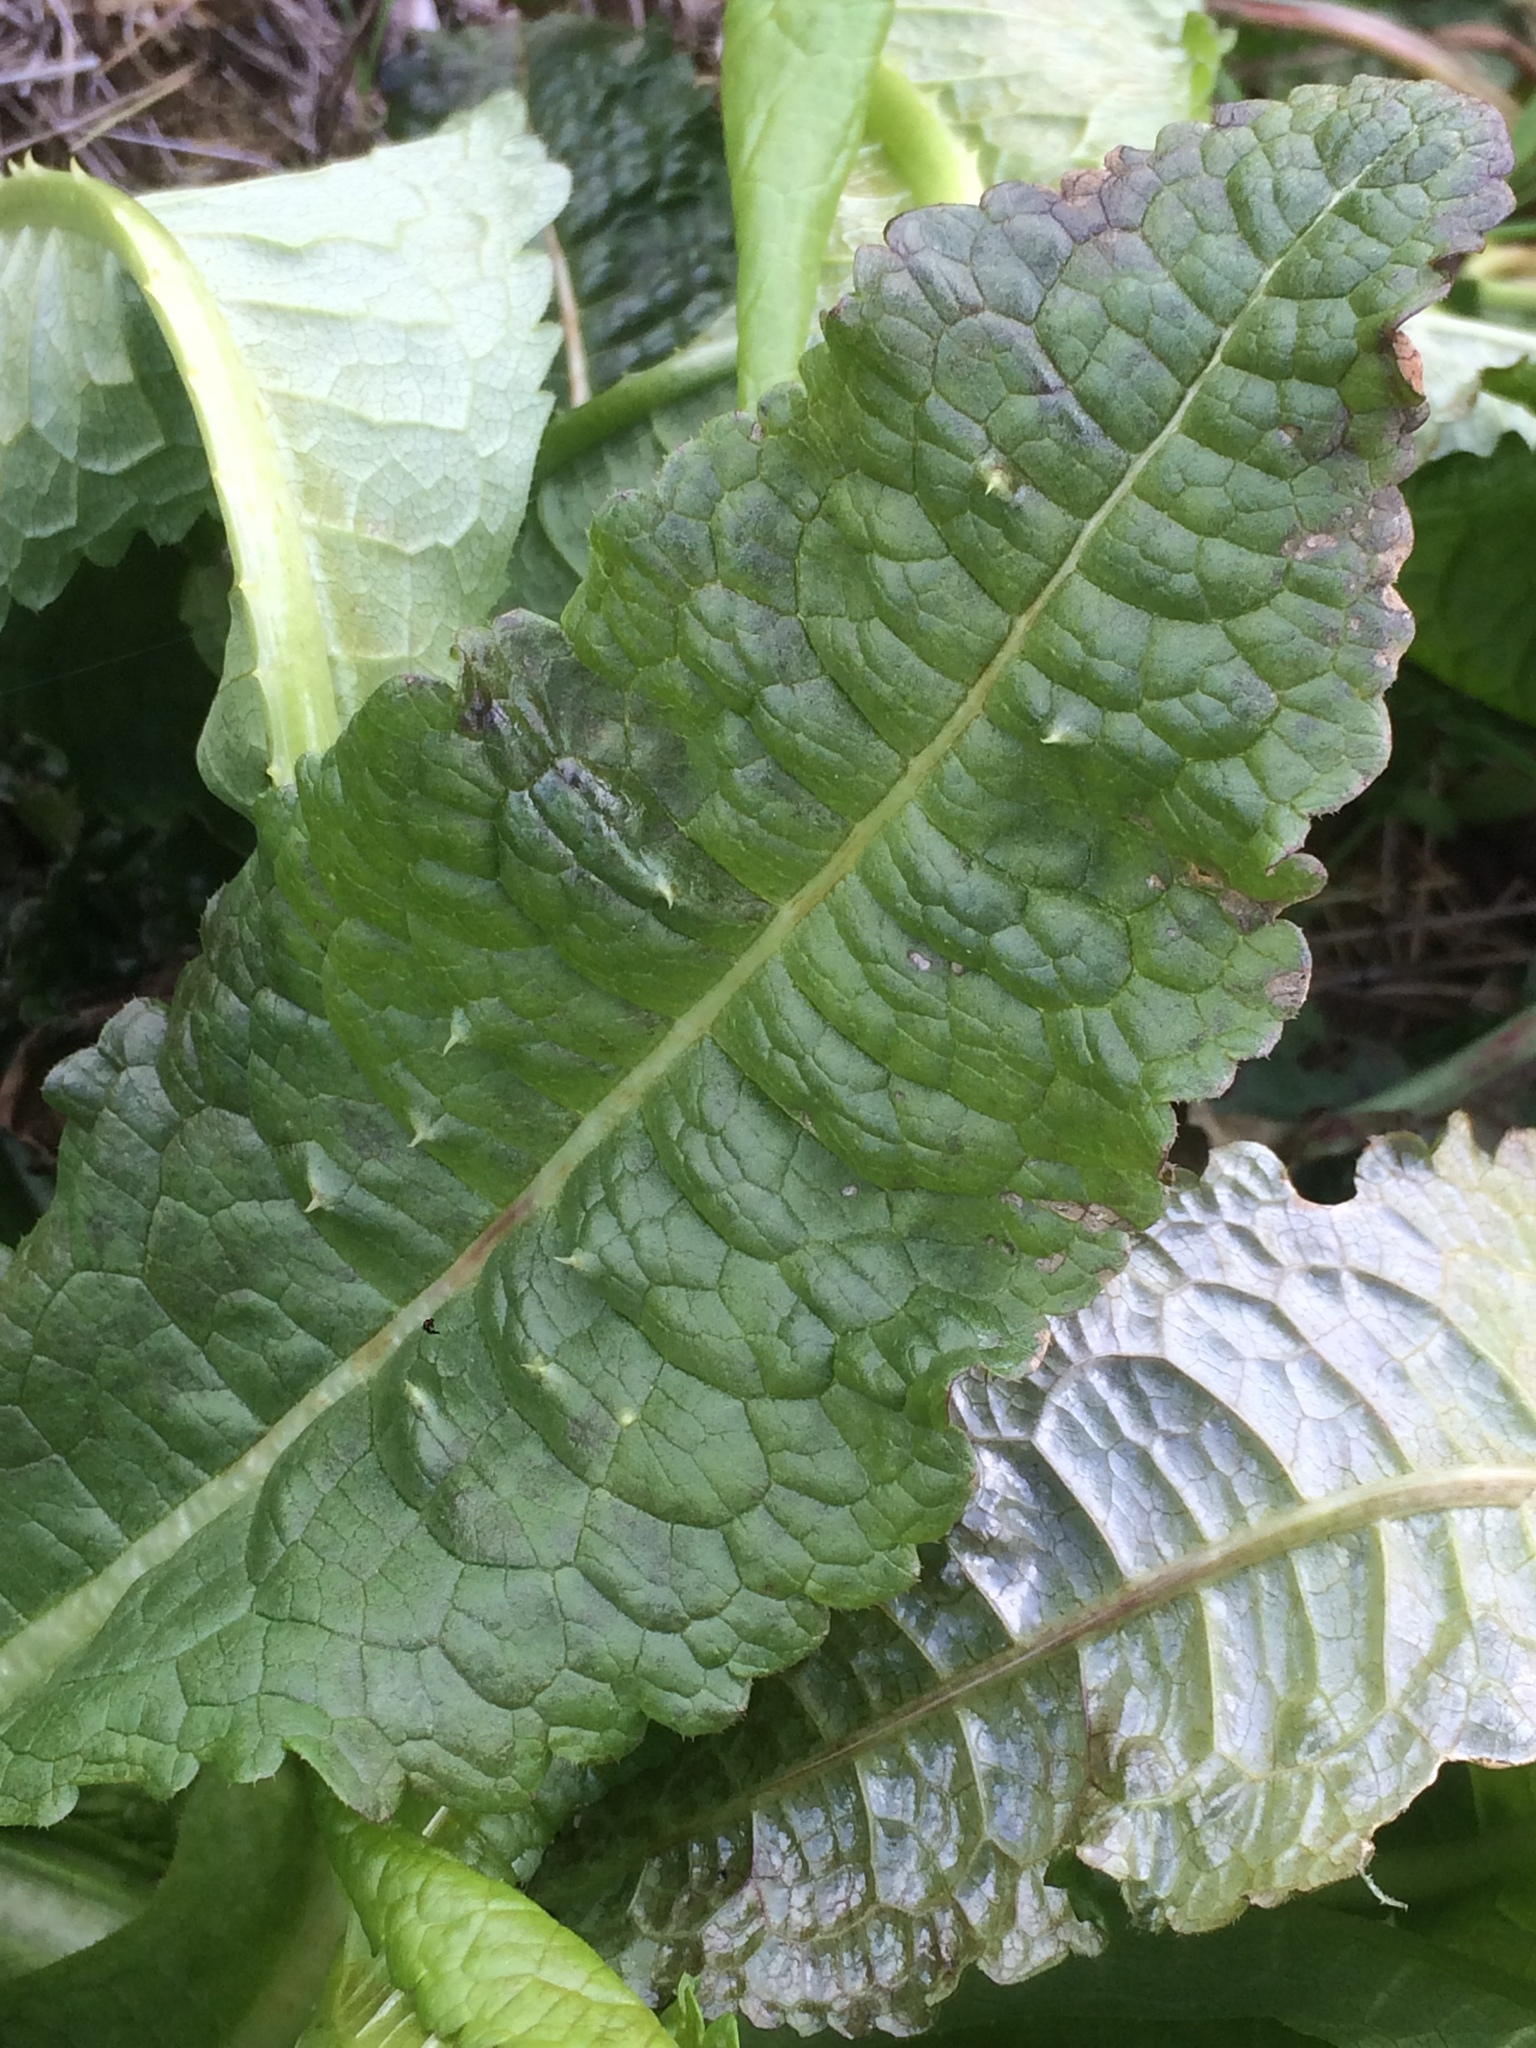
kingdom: Plantae
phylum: Tracheophyta
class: Magnoliopsida
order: Dipsacales
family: Caprifoliaceae
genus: Dipsacus
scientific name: Dipsacus fullonum
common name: Teasel
